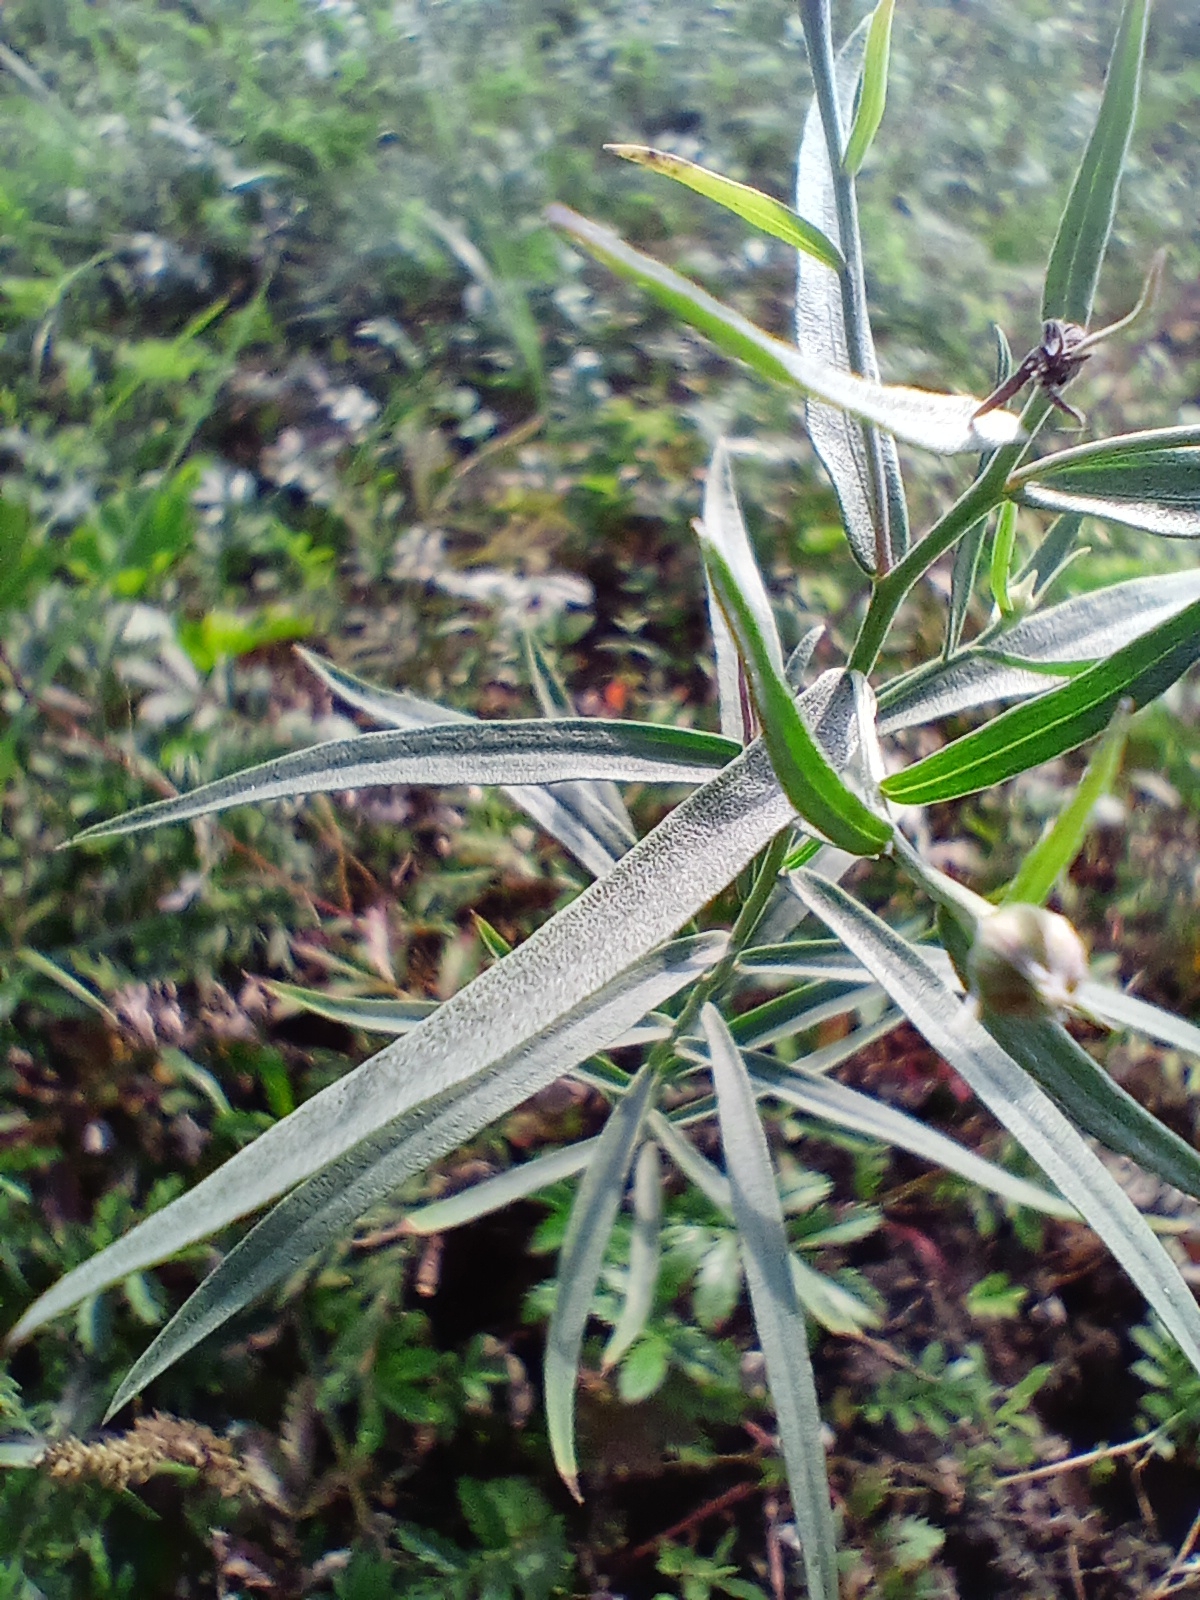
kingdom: Plantae
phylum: Tracheophyta
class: Magnoliopsida
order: Asterales
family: Asteraceae
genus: Galatella
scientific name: Galatella dahurica
